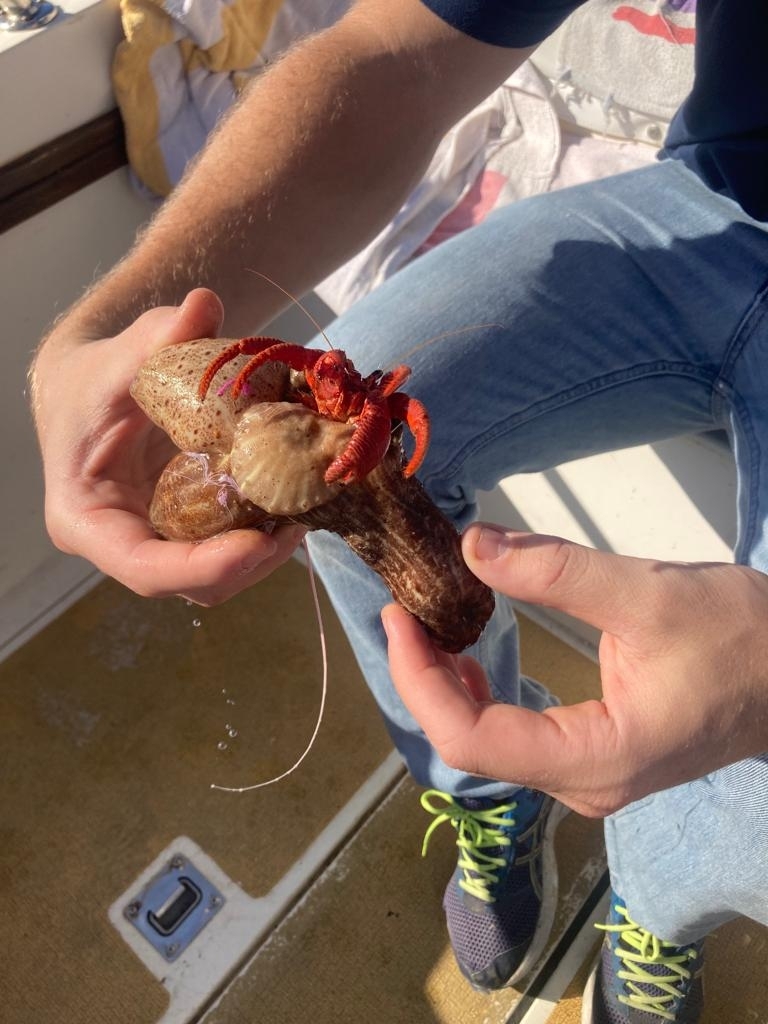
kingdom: Animalia
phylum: Arthropoda
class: Malacostraca
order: Decapoda
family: Diogenidae
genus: Dardanus
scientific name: Dardanus arrosor
